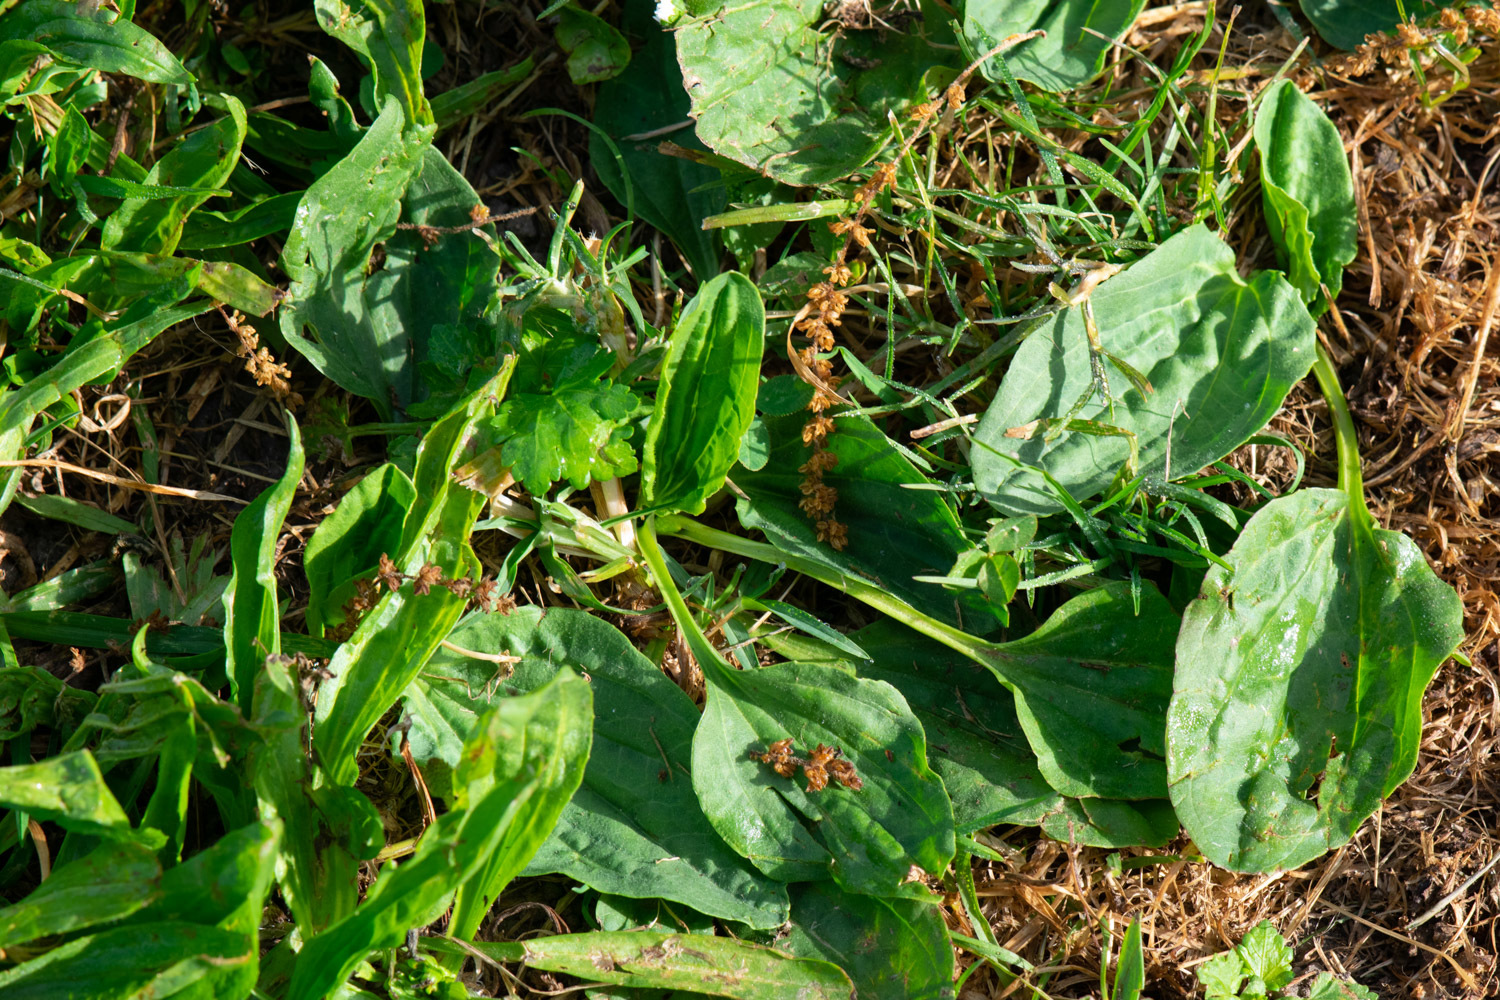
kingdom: Plantae
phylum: Tracheophyta
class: Magnoliopsida
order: Lamiales
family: Plantaginaceae
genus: Plantago
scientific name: Plantago major
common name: Common plantain
